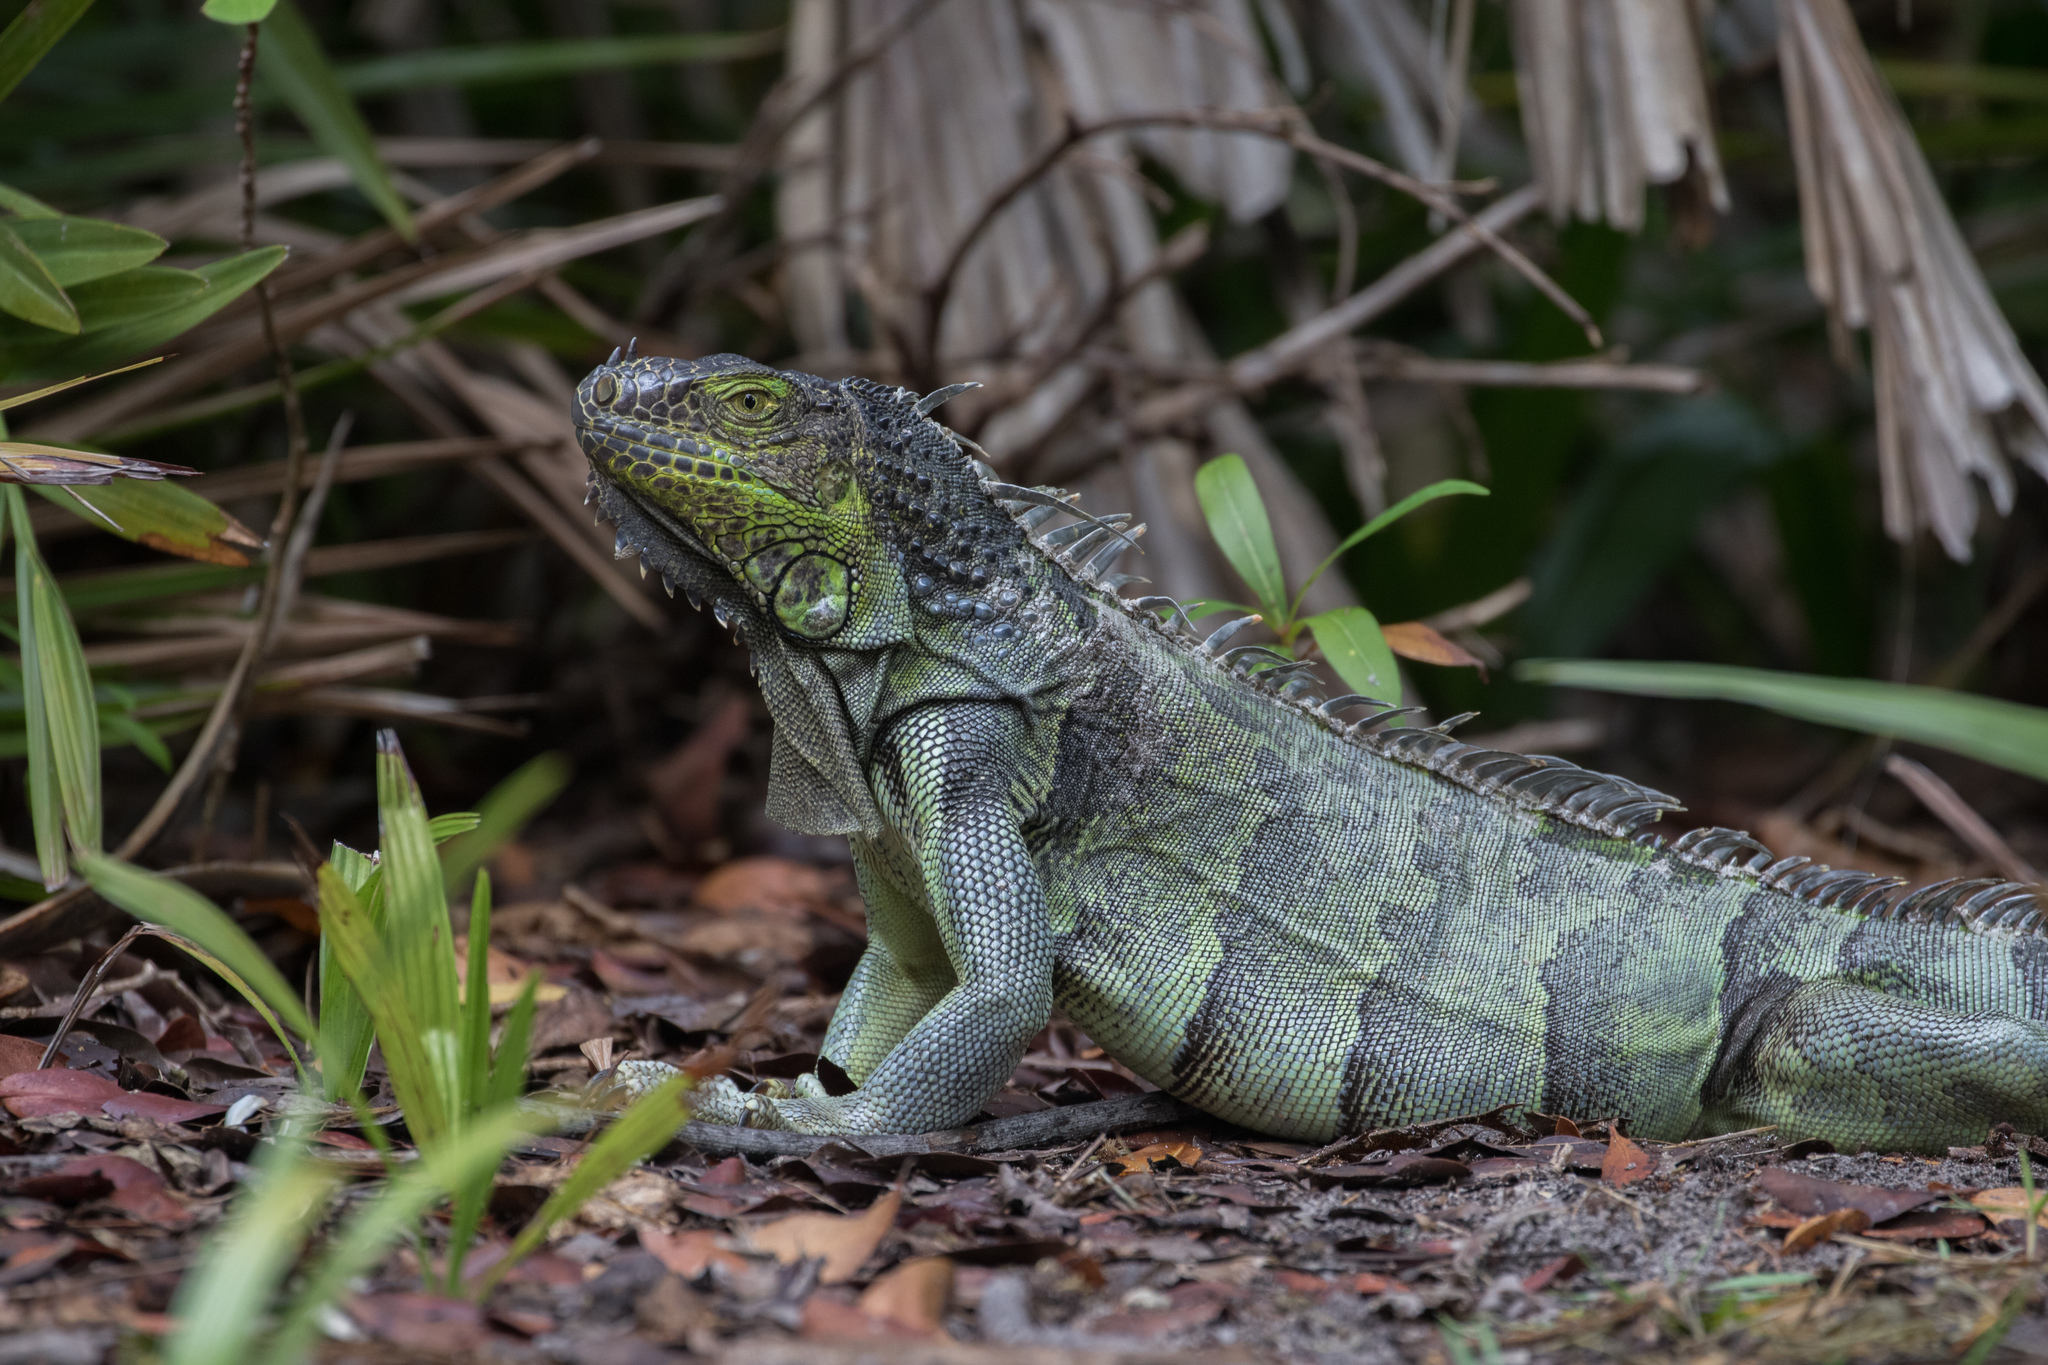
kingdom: Animalia
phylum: Chordata
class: Squamata
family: Iguanidae
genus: Iguana
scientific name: Iguana iguana
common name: Green iguana
